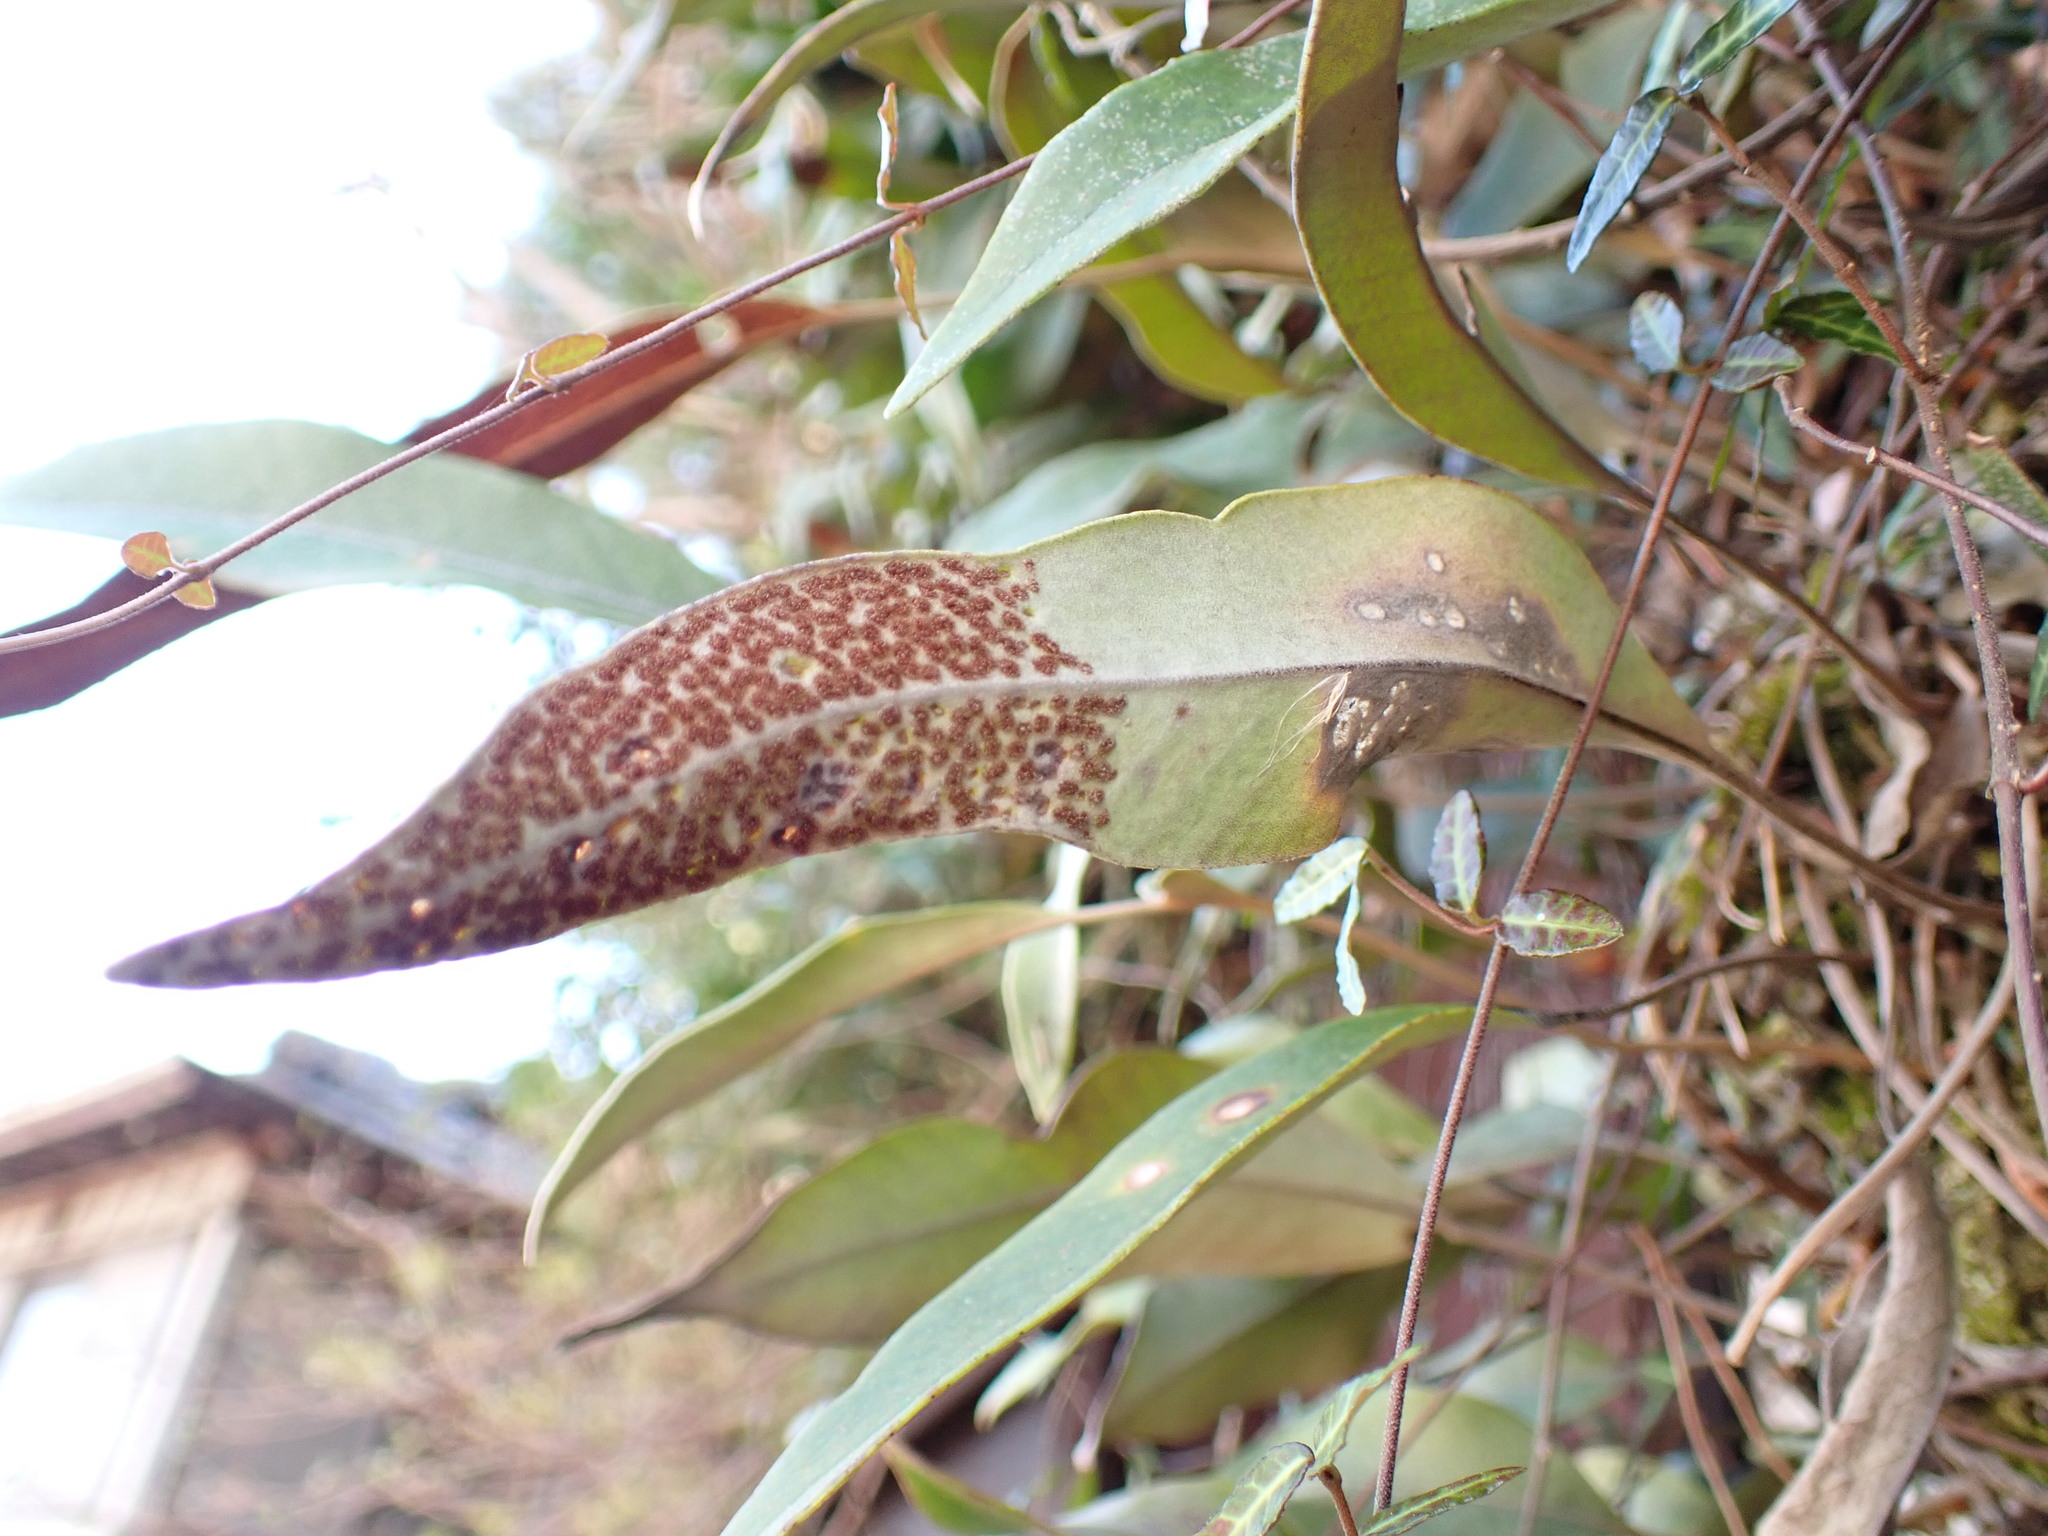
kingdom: Plantae
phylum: Tracheophyta
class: Polypodiopsida
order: Polypodiales
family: Polypodiaceae
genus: Pyrrosia
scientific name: Pyrrosia lingua
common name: Felt fern
